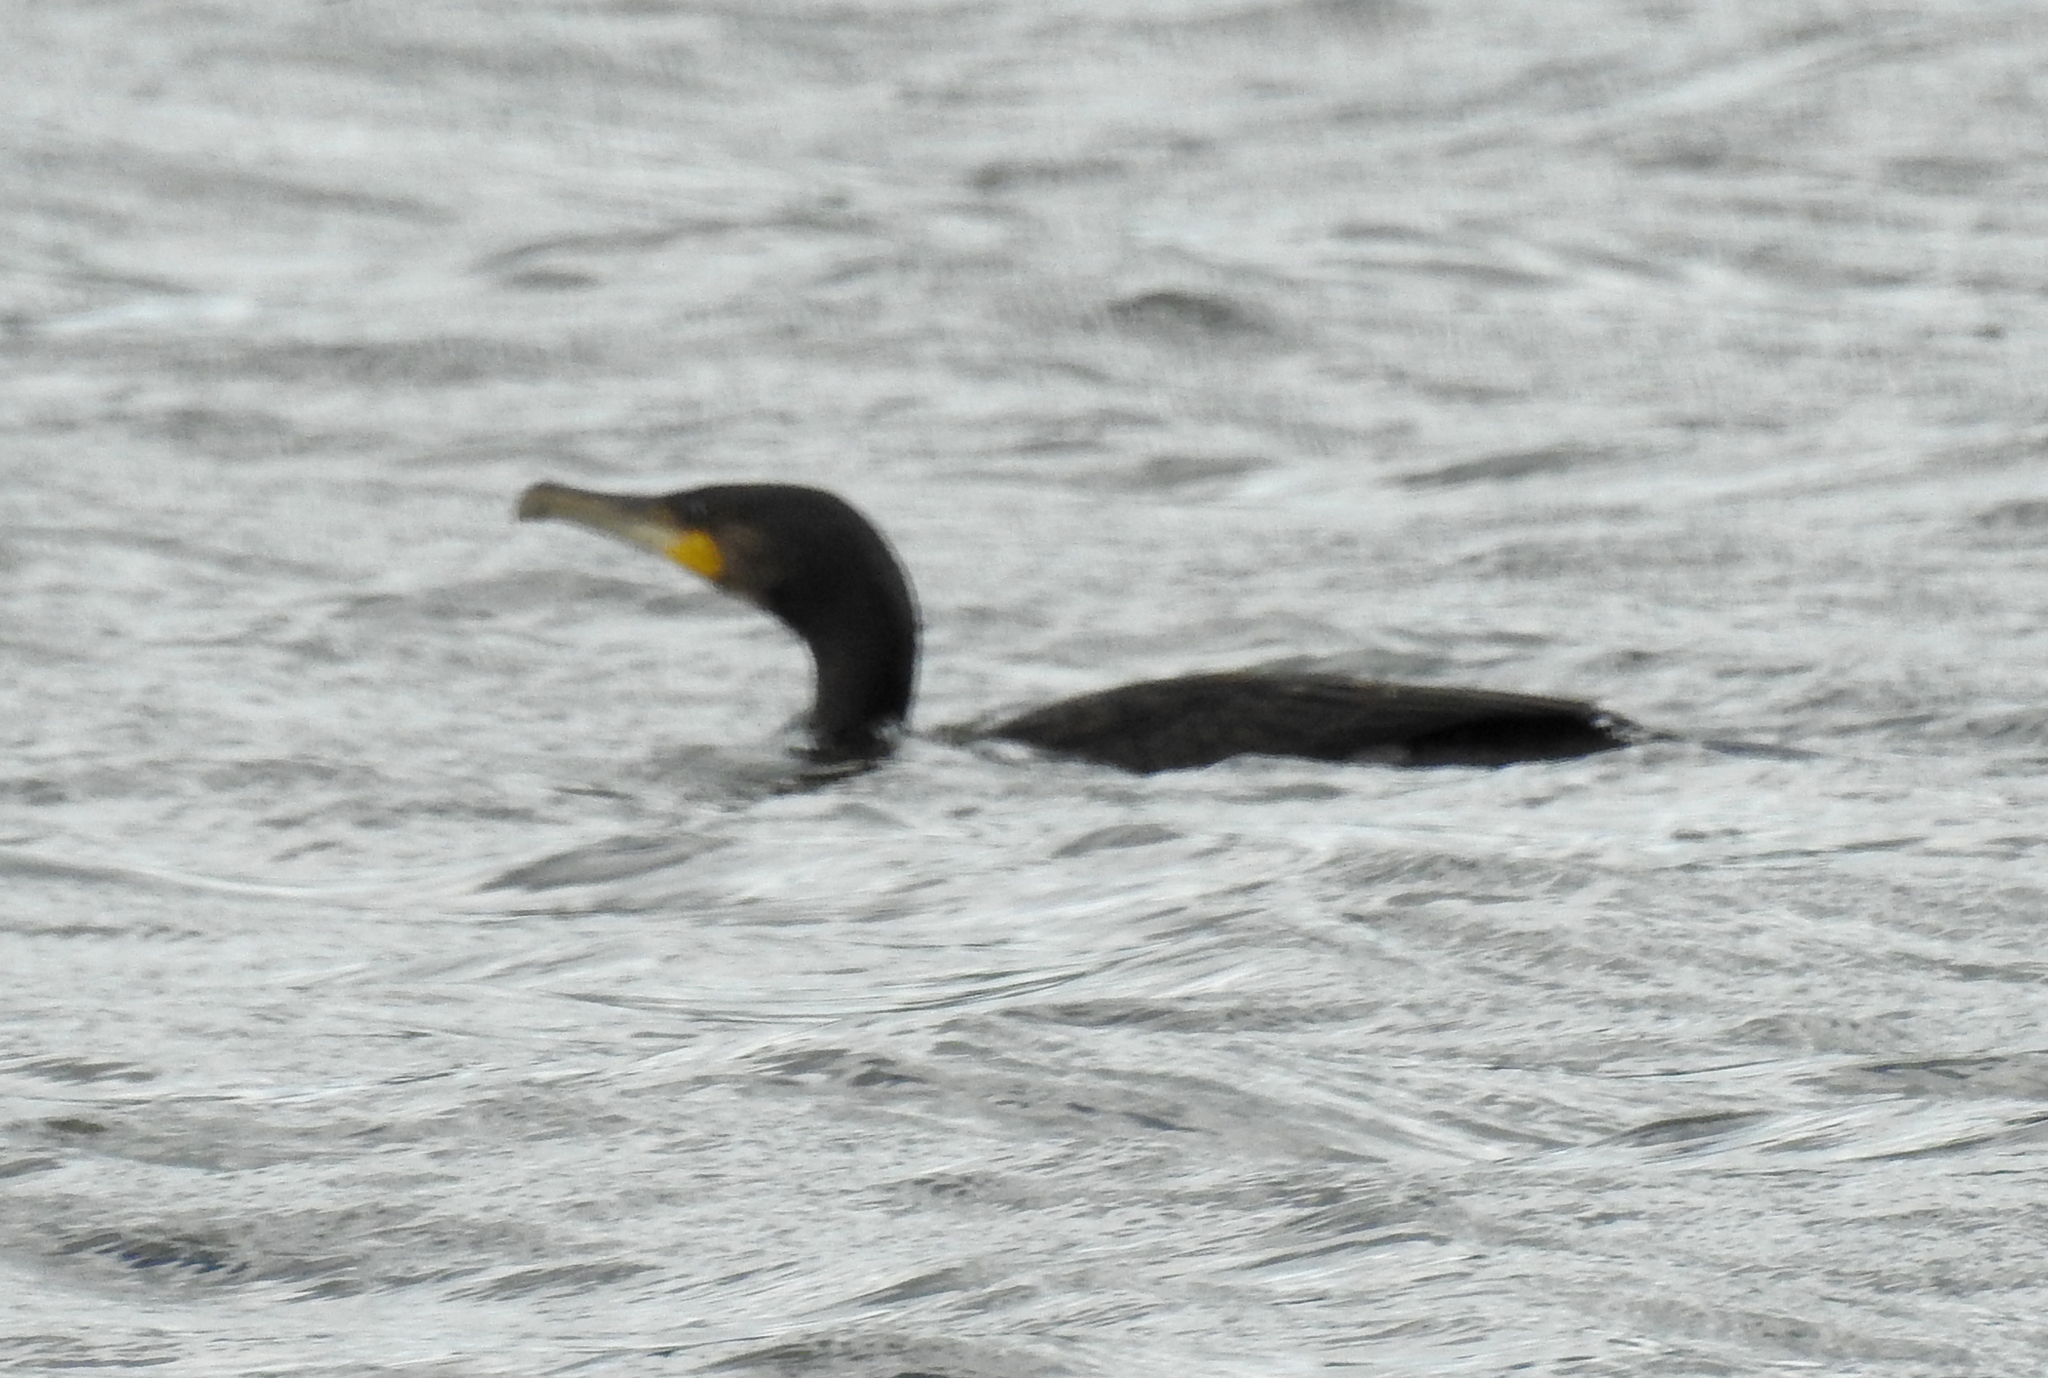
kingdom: Animalia
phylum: Chordata
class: Aves
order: Suliformes
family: Phalacrocoracidae
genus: Phalacrocorax
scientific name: Phalacrocorax carbo
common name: Great cormorant
